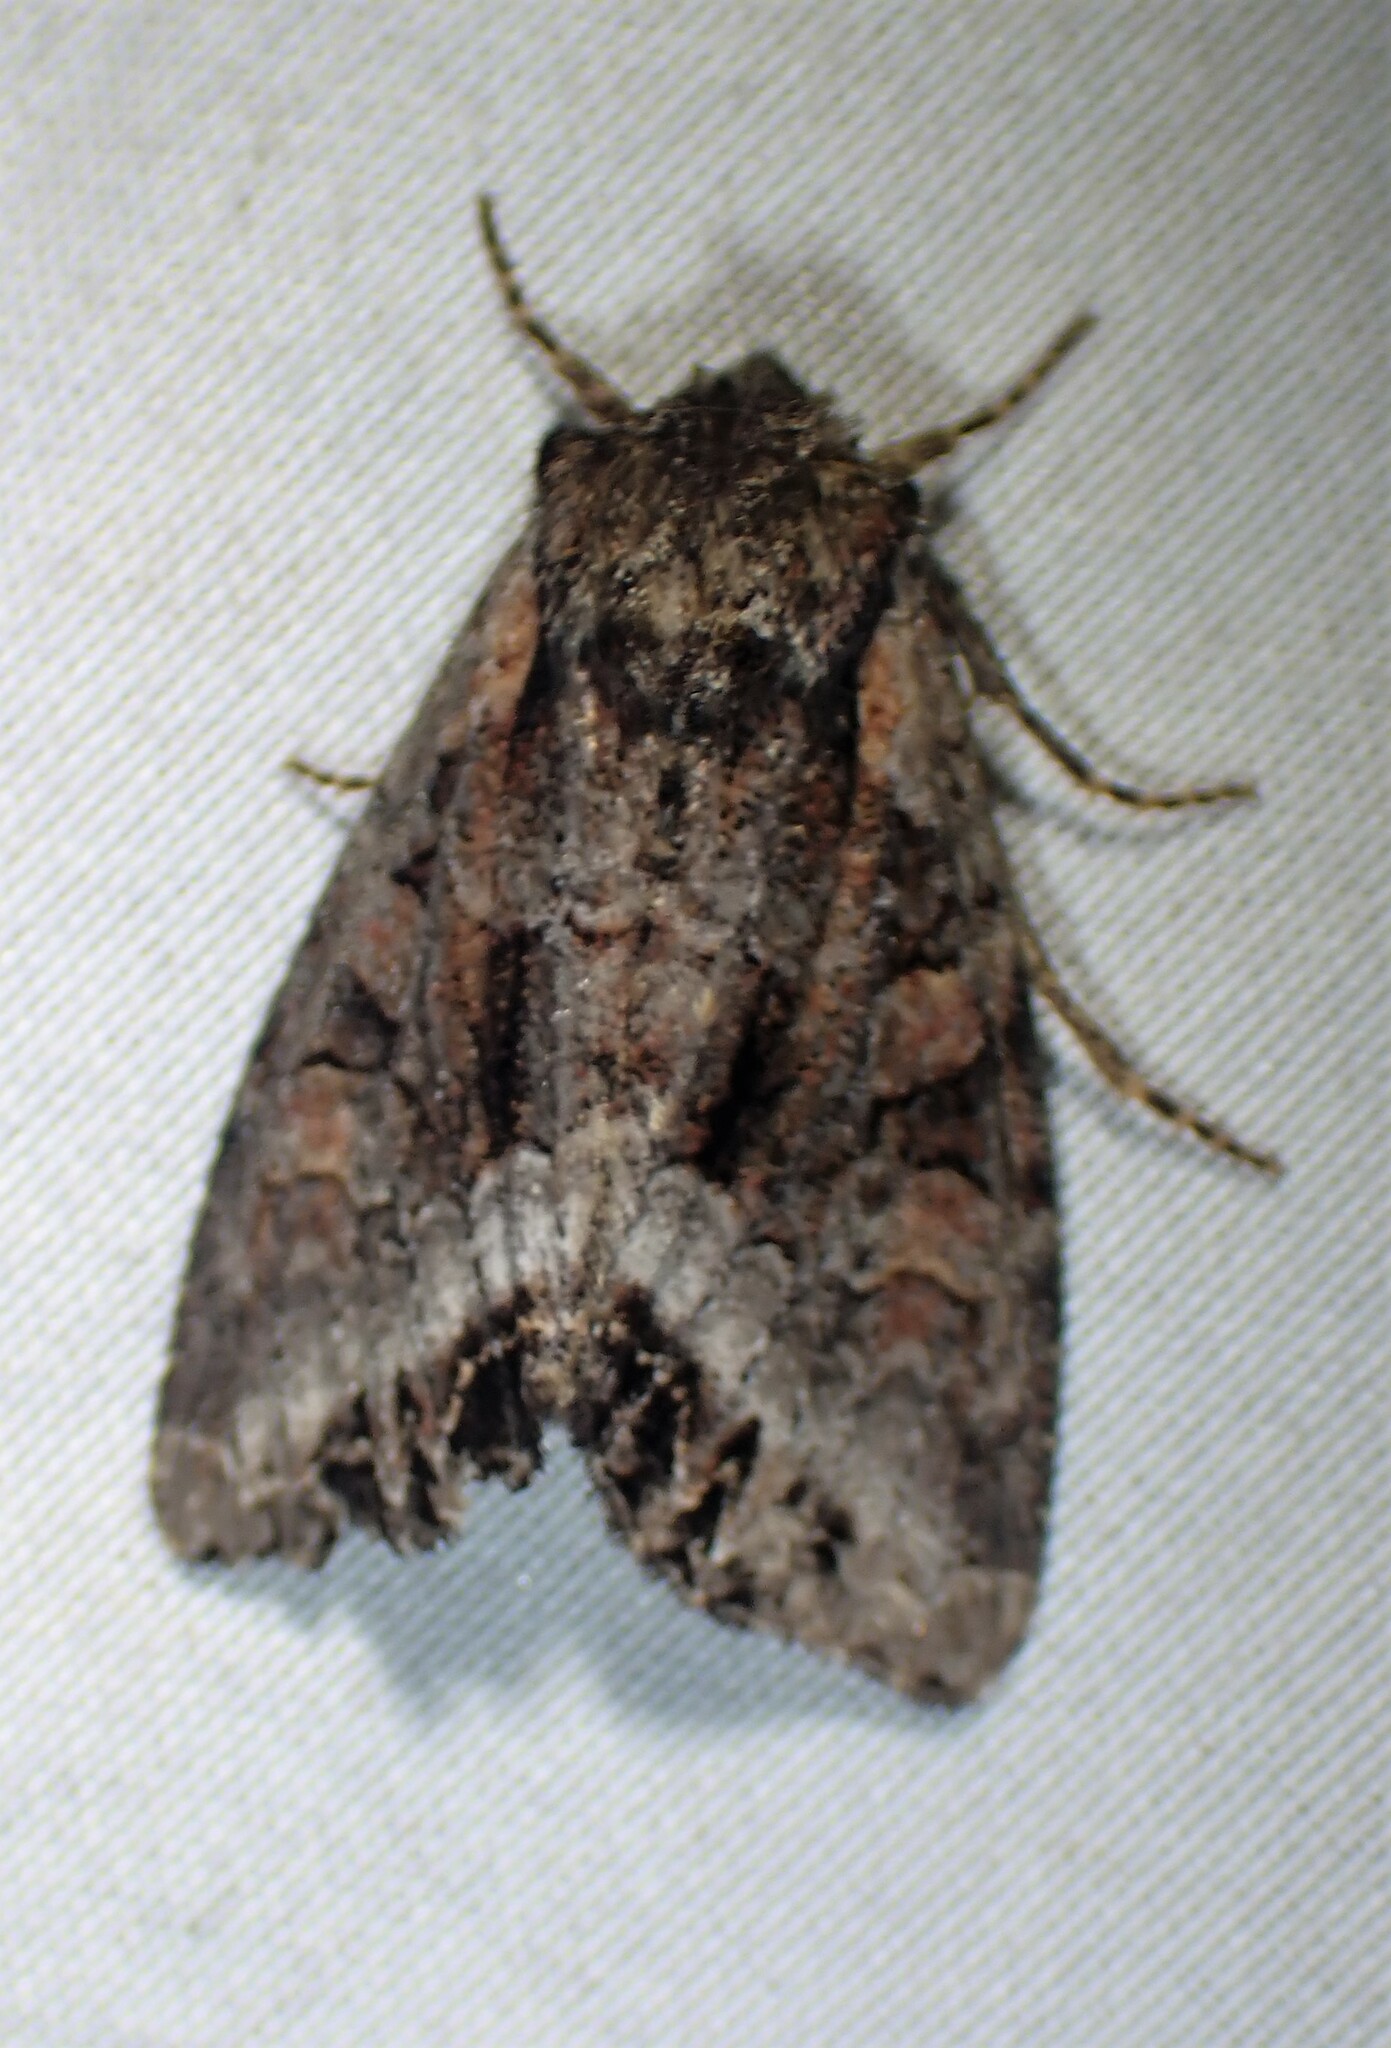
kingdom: Animalia
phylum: Arthropoda
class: Insecta
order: Lepidoptera
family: Noctuidae
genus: Lacanobia
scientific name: Lacanobia grandis
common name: Grand arches moth
